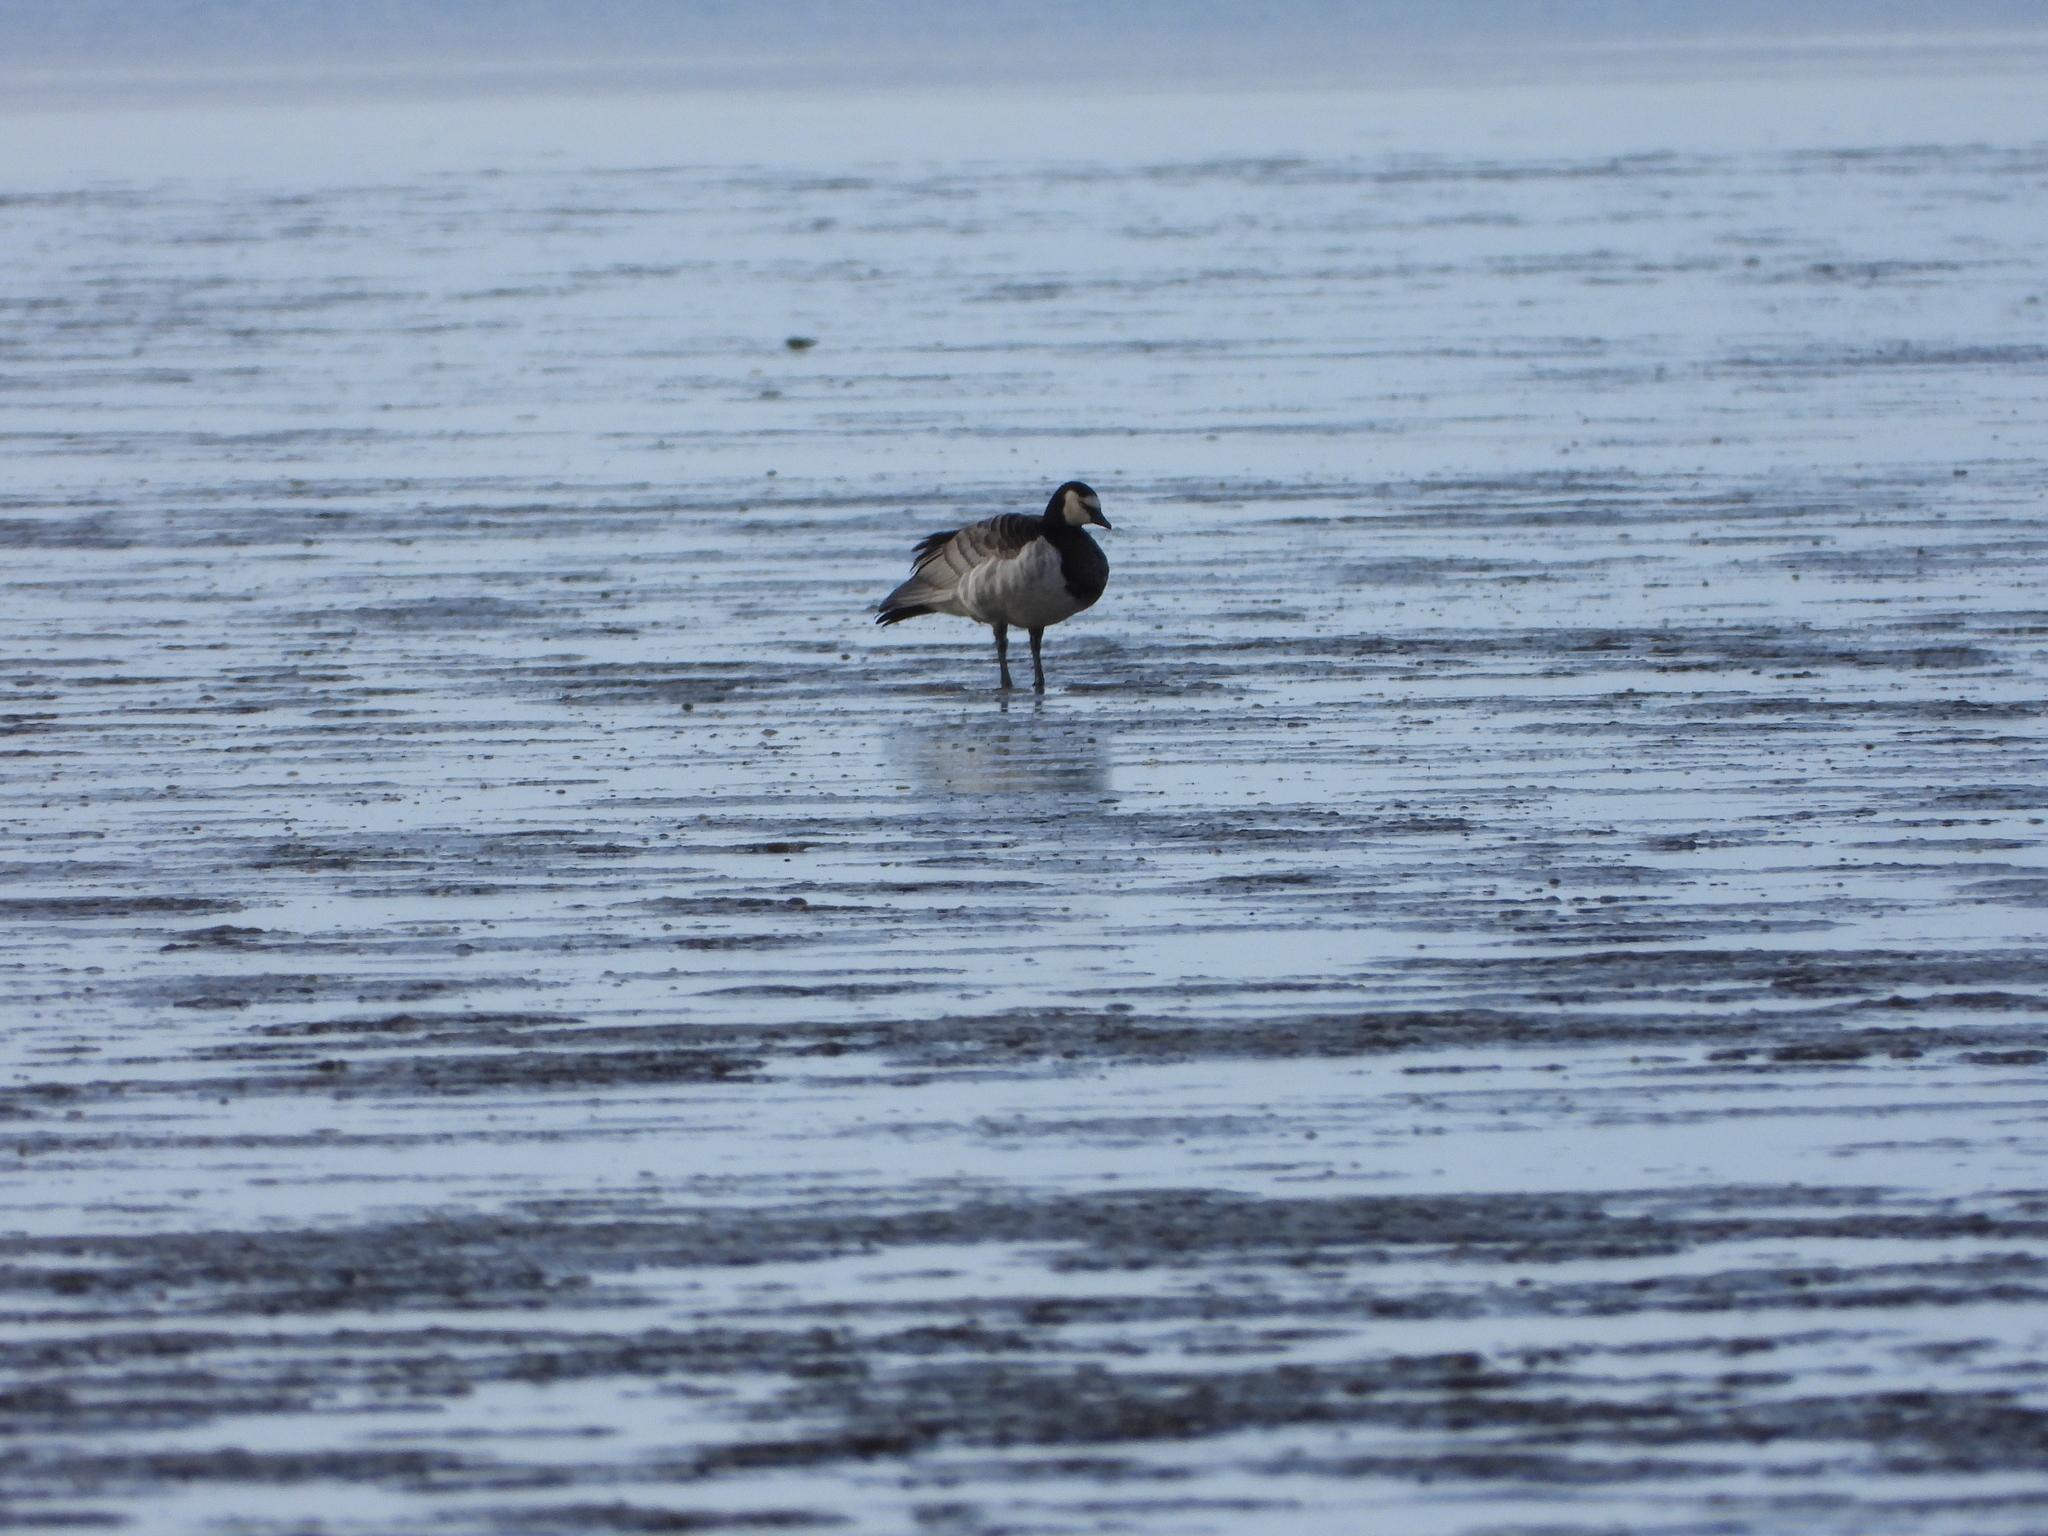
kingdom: Animalia
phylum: Chordata
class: Aves
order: Anseriformes
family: Anatidae
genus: Branta
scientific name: Branta leucopsis
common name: Barnacle goose
